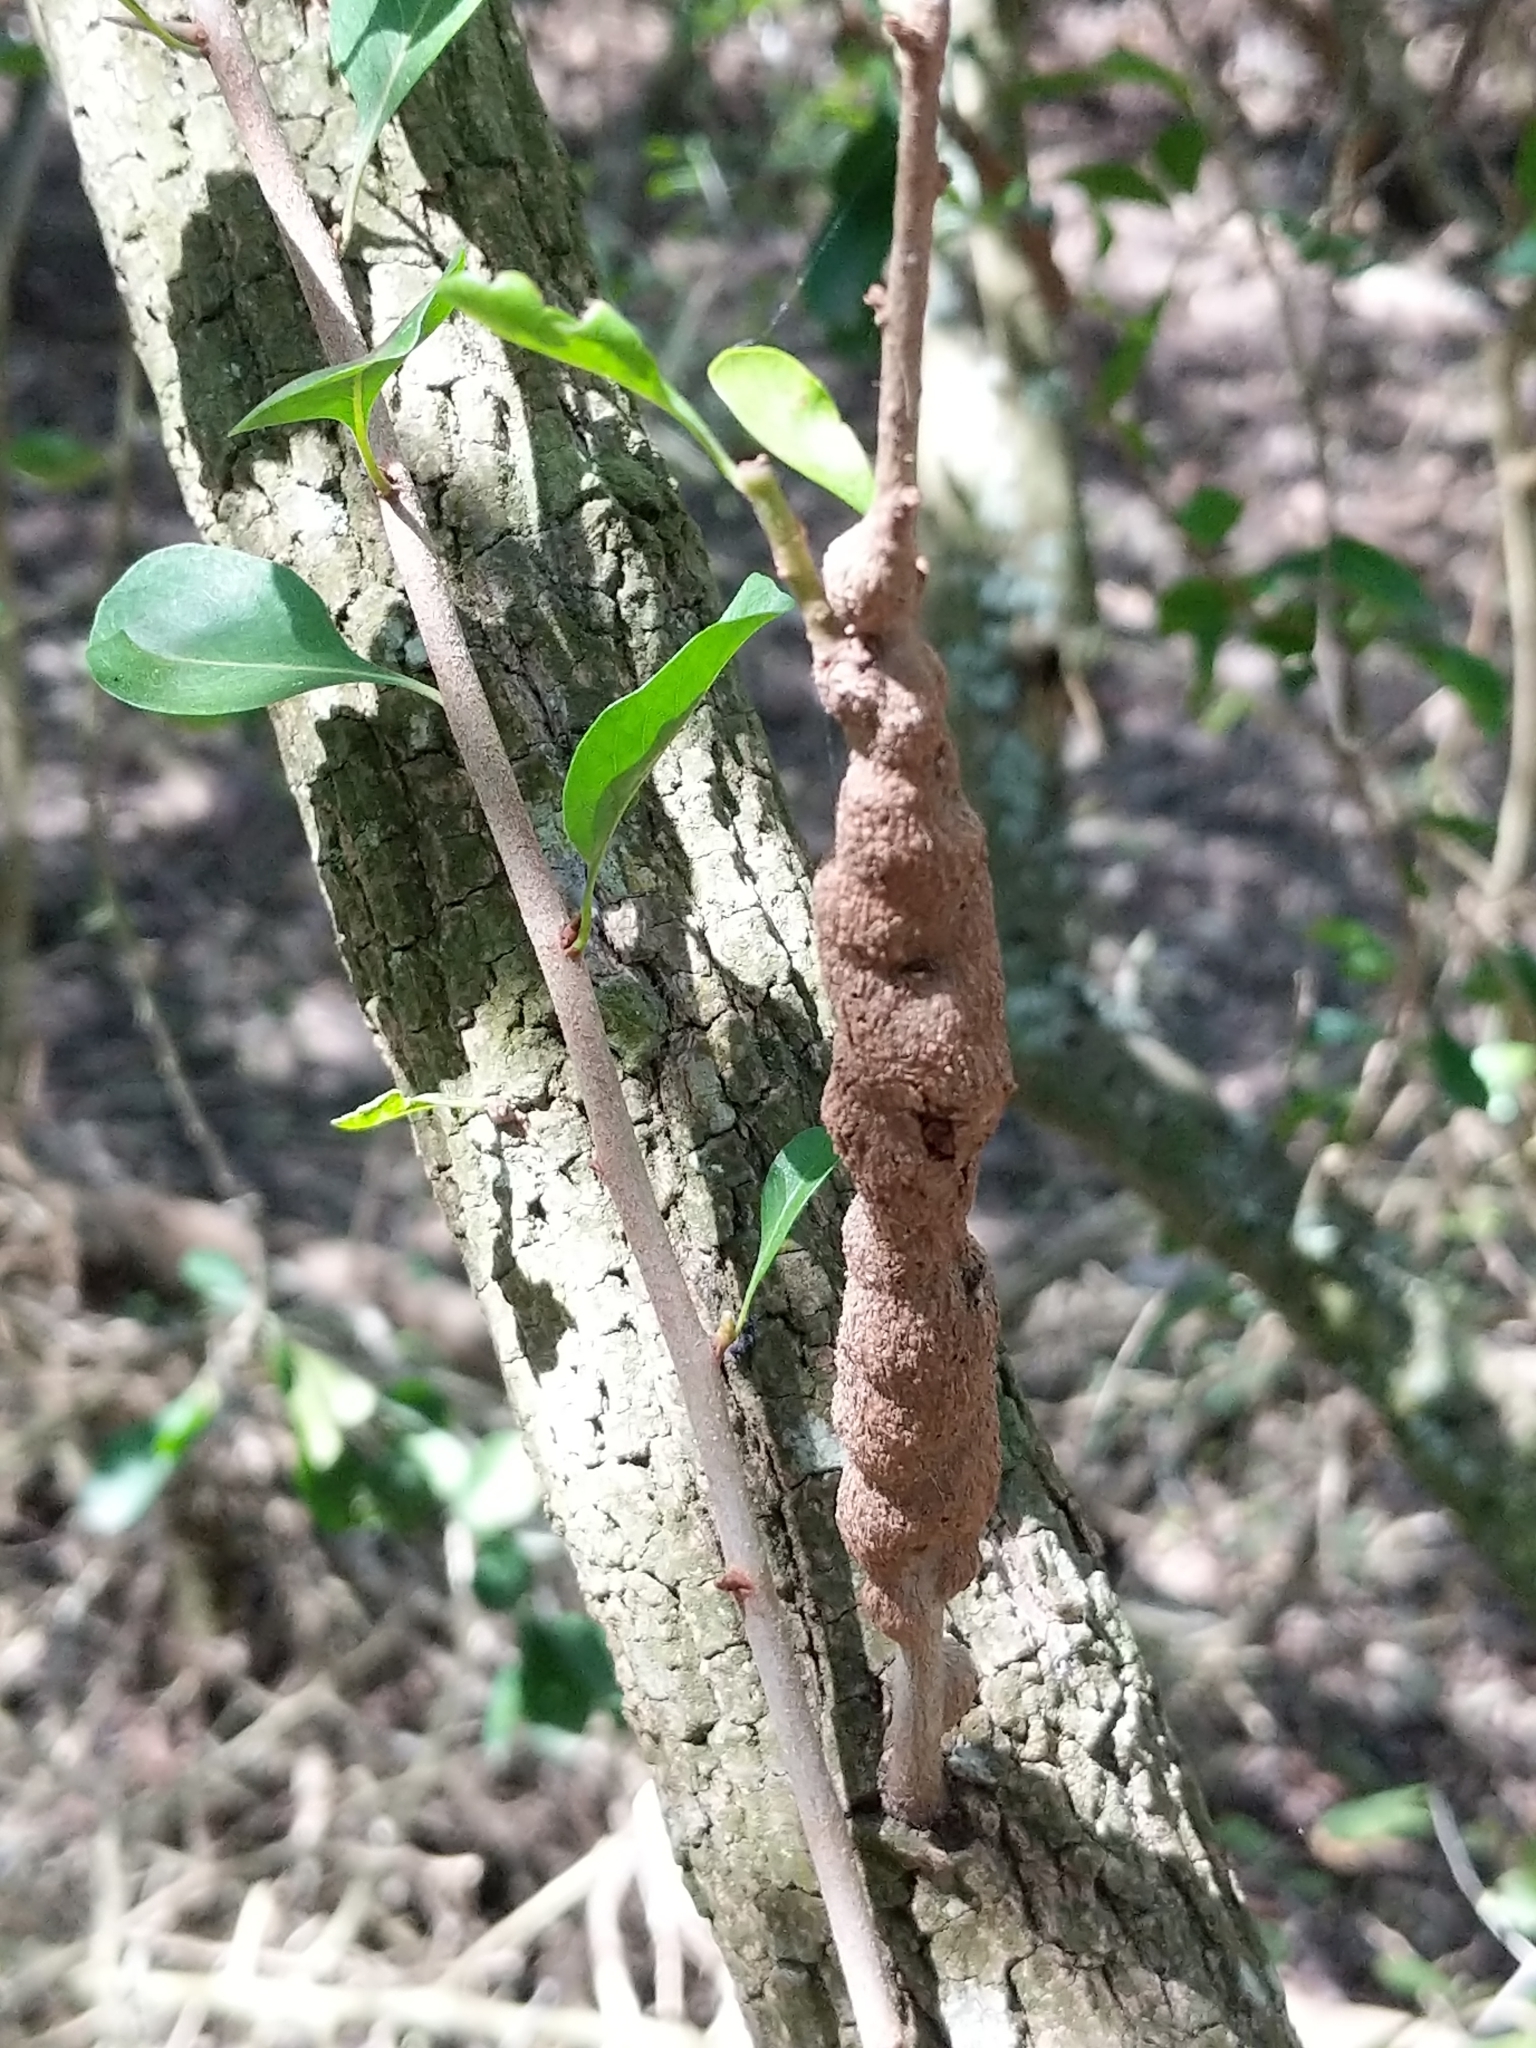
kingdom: Animalia
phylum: Arthropoda
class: Insecta
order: Hymenoptera
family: Cynipidae
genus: Callirhytis
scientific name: Callirhytis
